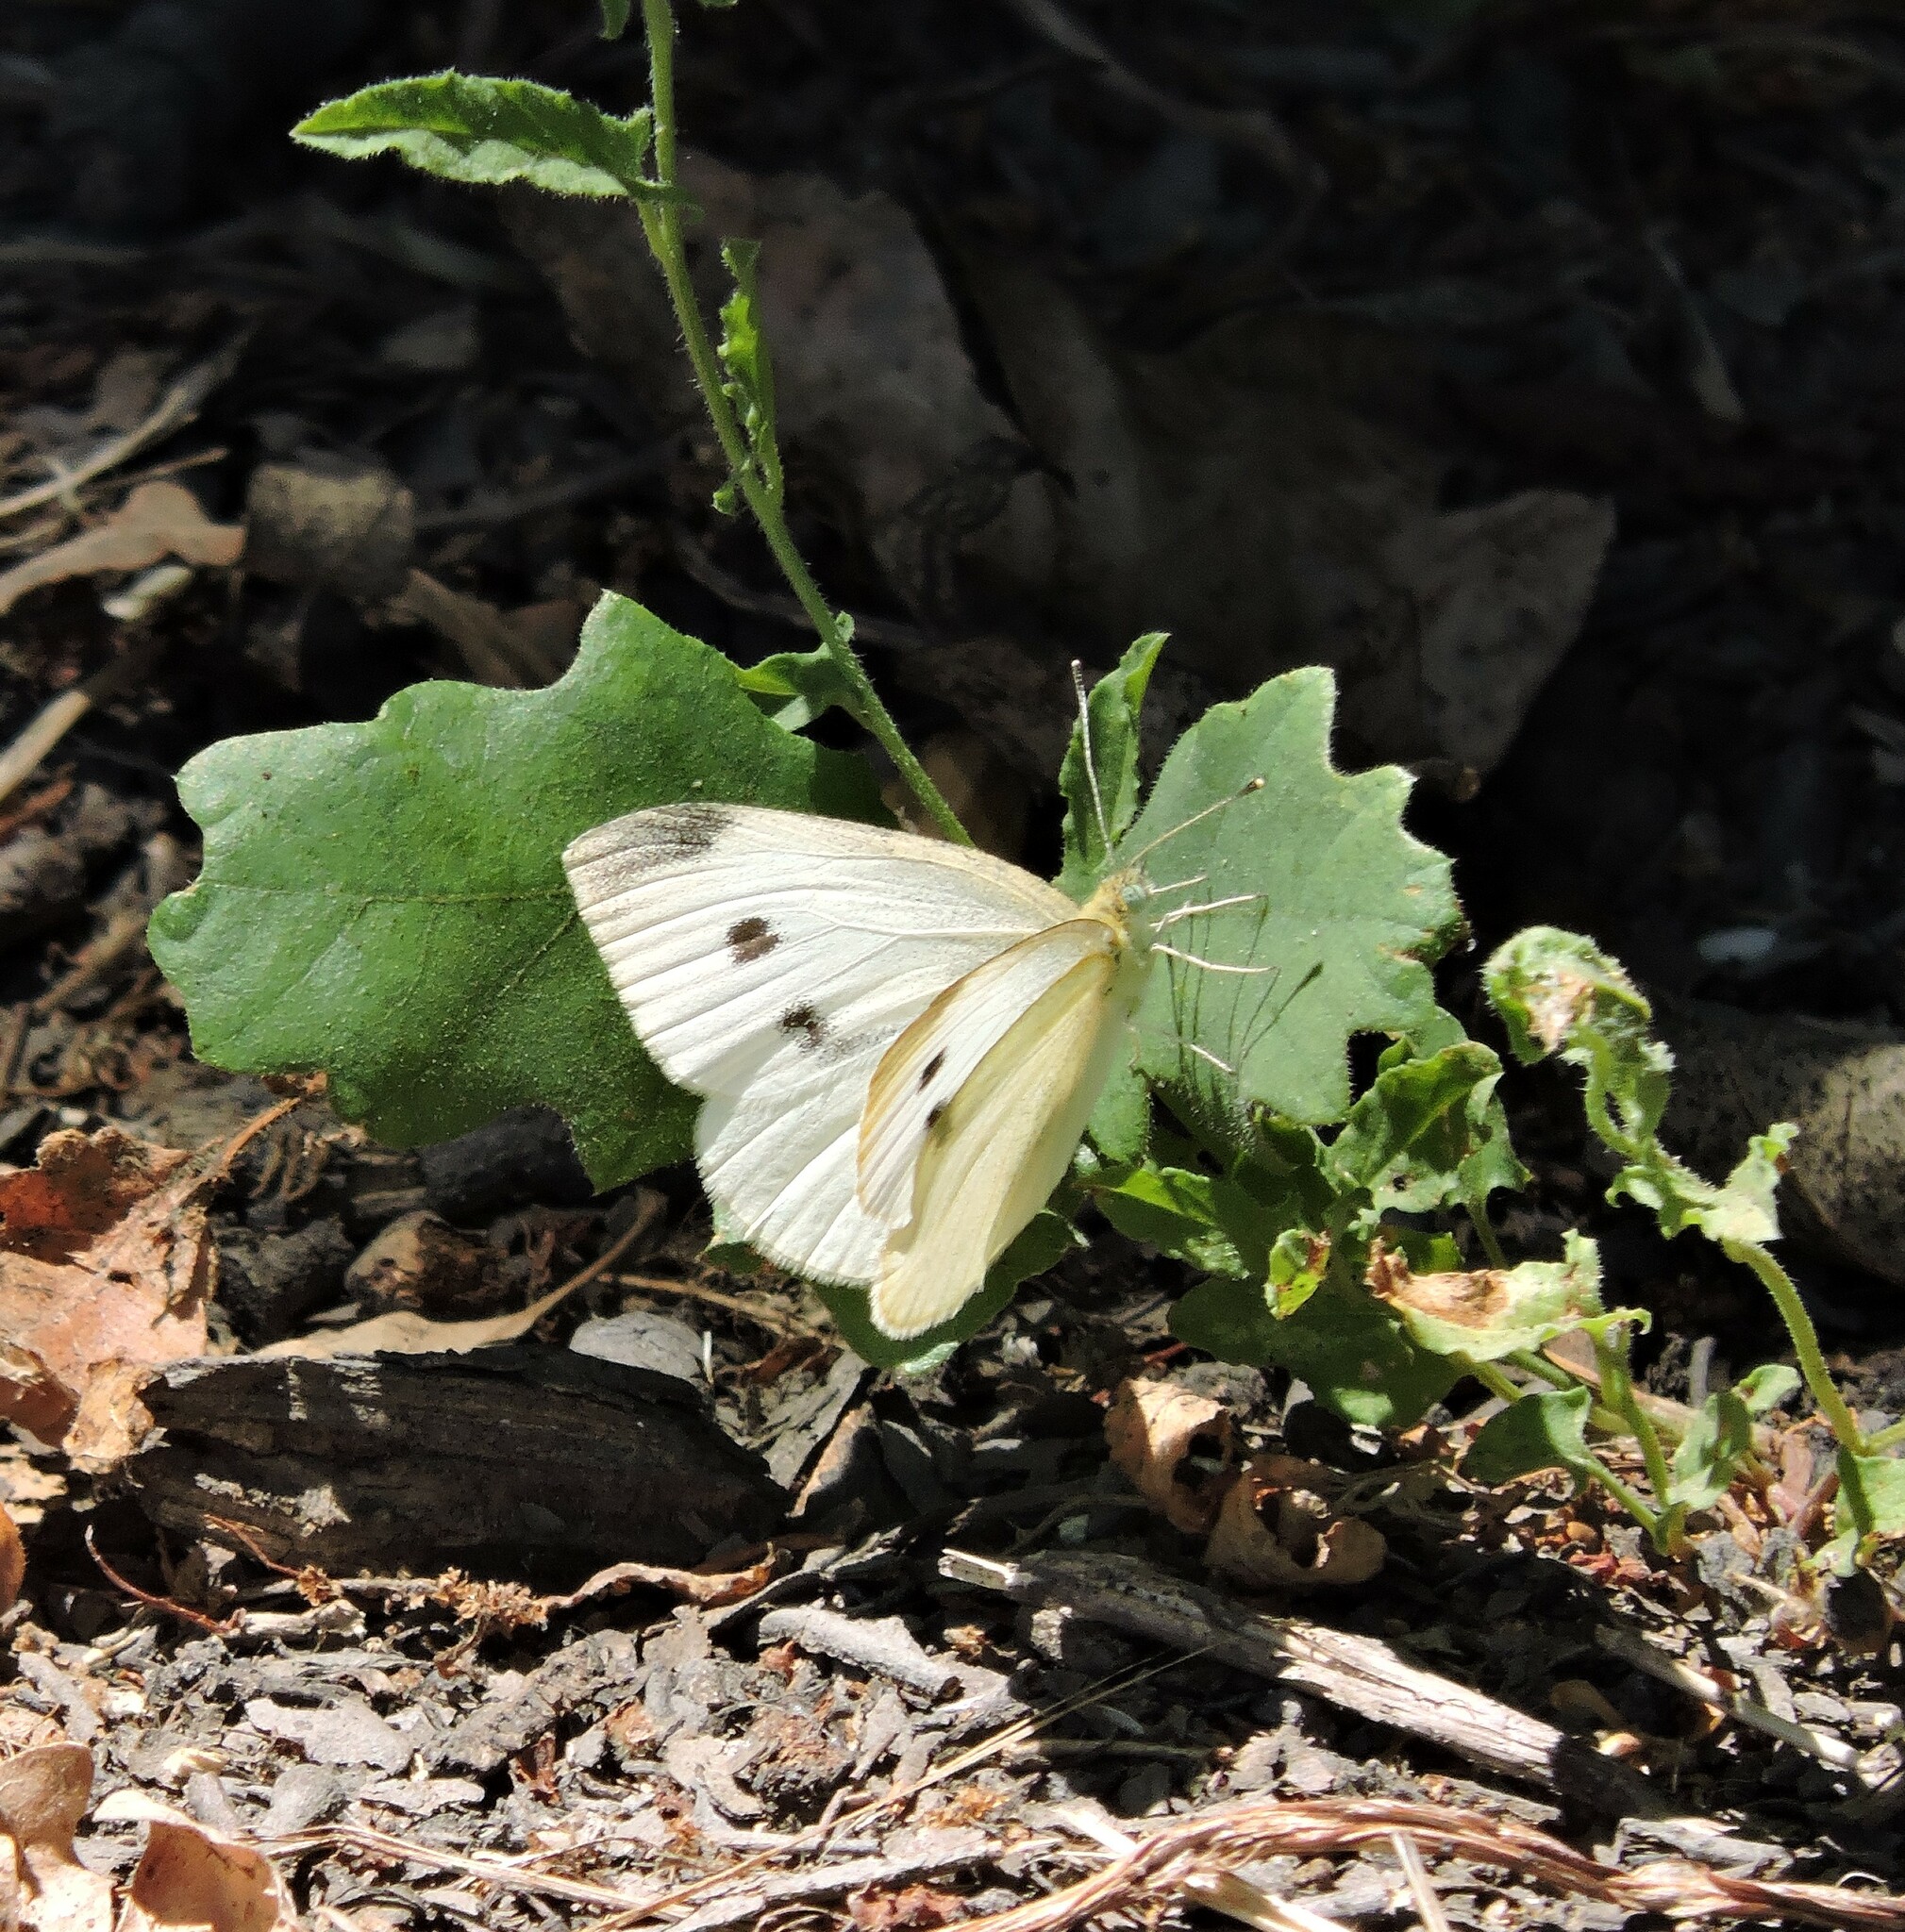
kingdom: Animalia
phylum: Arthropoda
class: Insecta
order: Lepidoptera
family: Pieridae
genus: Pieris
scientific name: Pieris rapae
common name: Small white
